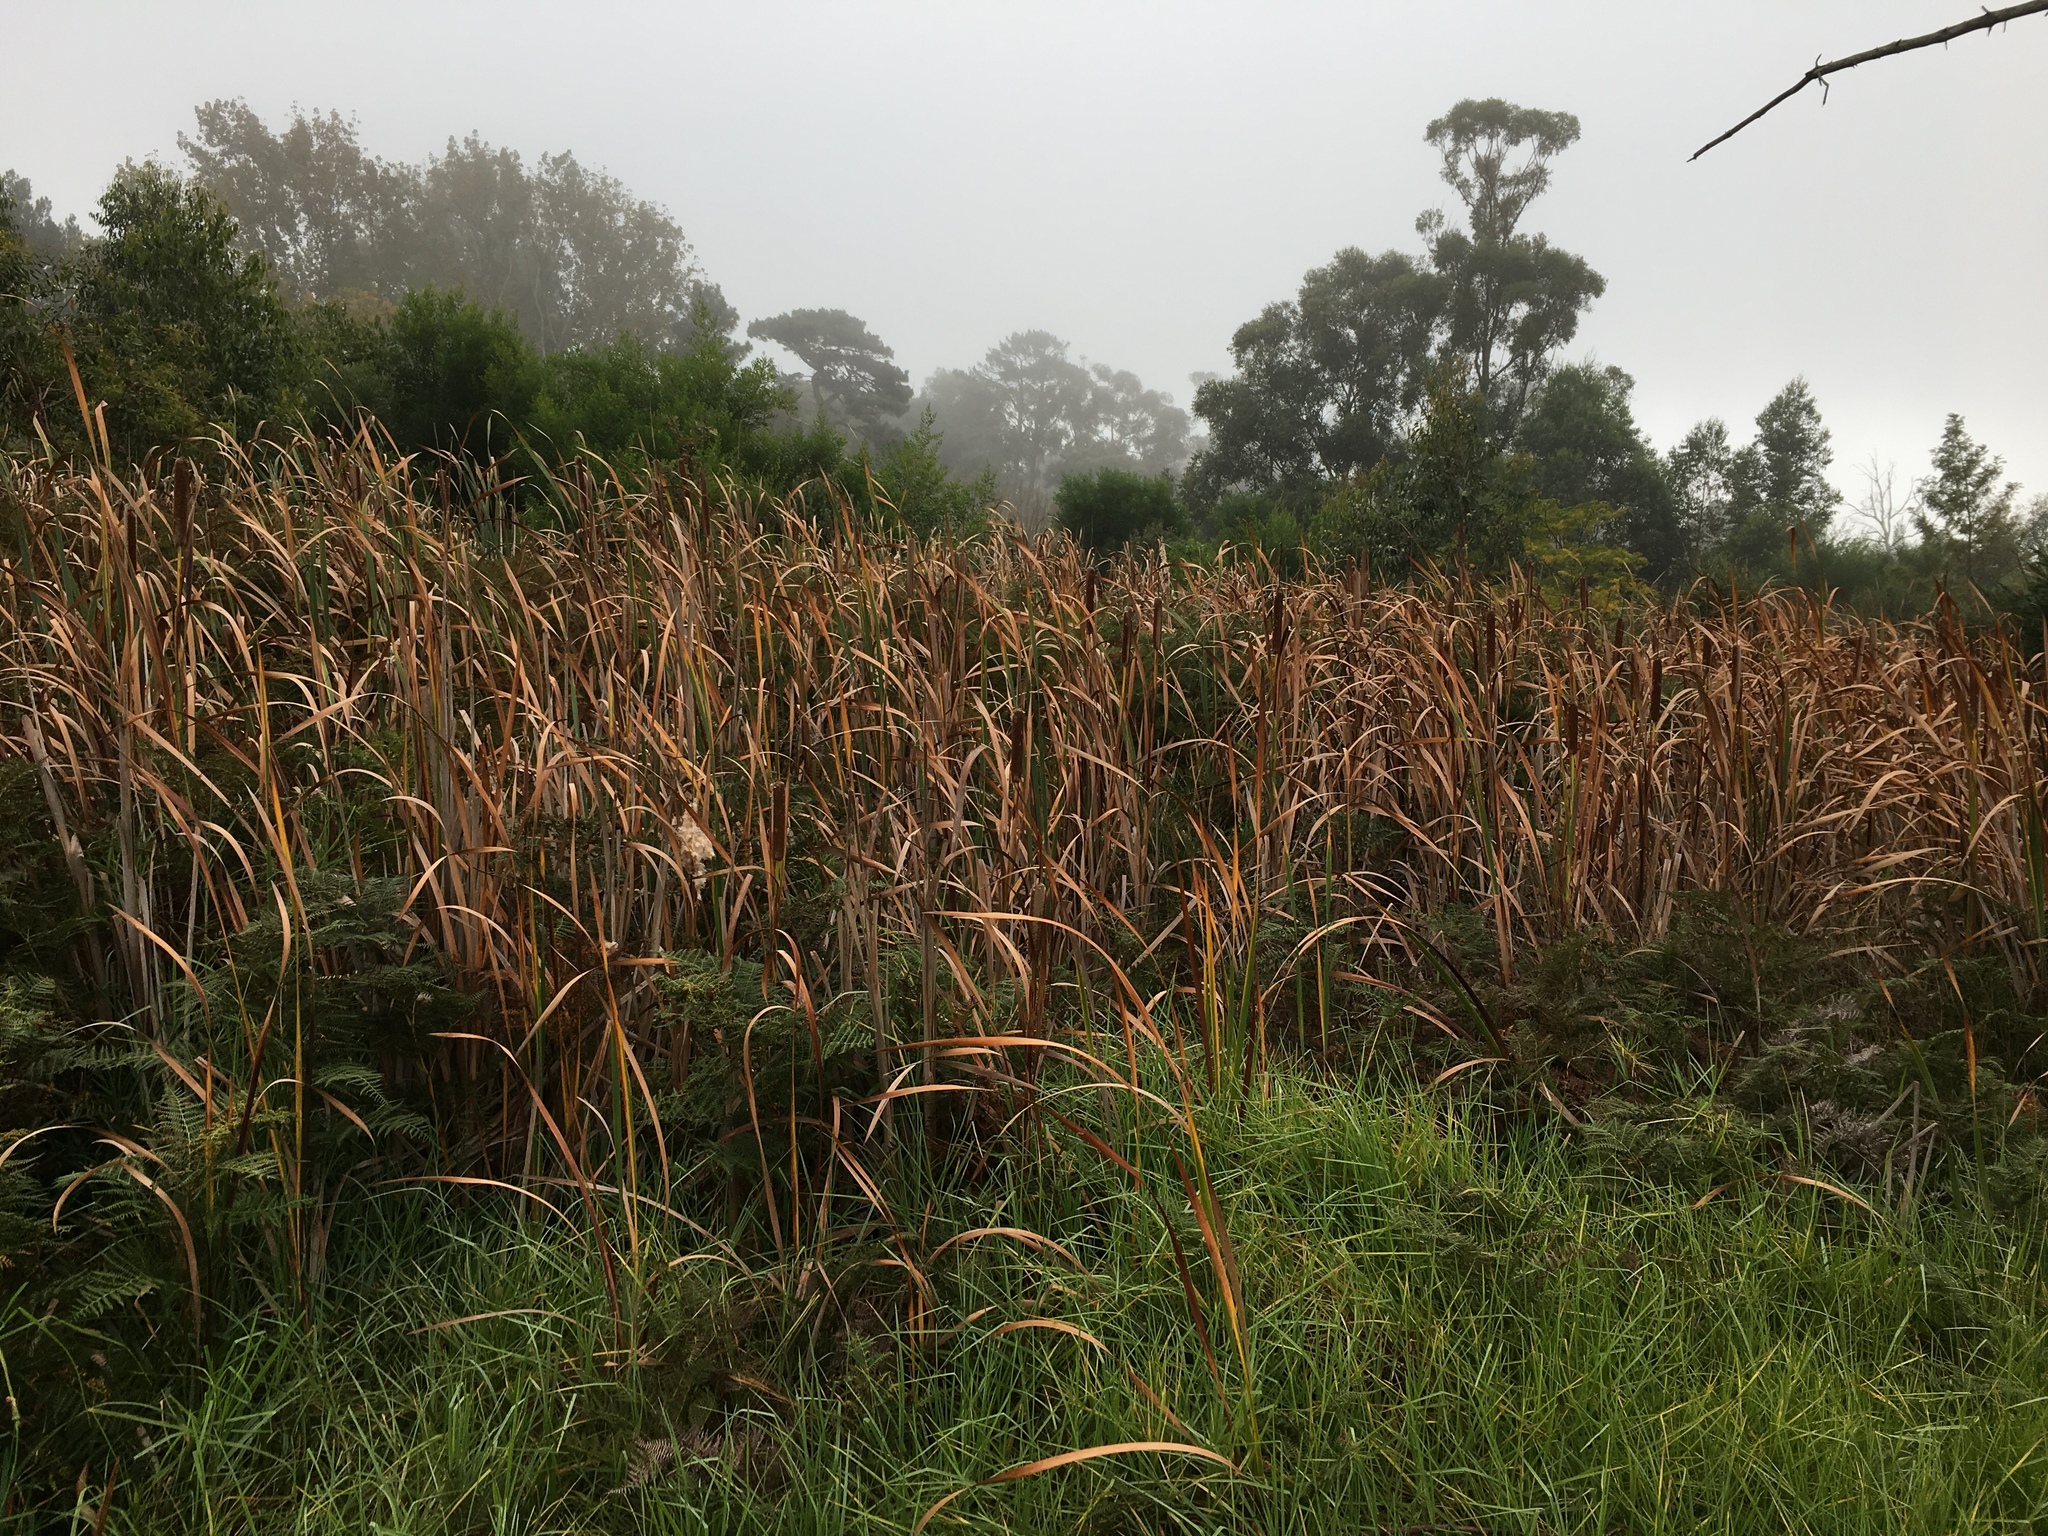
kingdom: Plantae
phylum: Tracheophyta
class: Liliopsida
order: Poales
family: Typhaceae
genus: Typha
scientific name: Typha capensis
